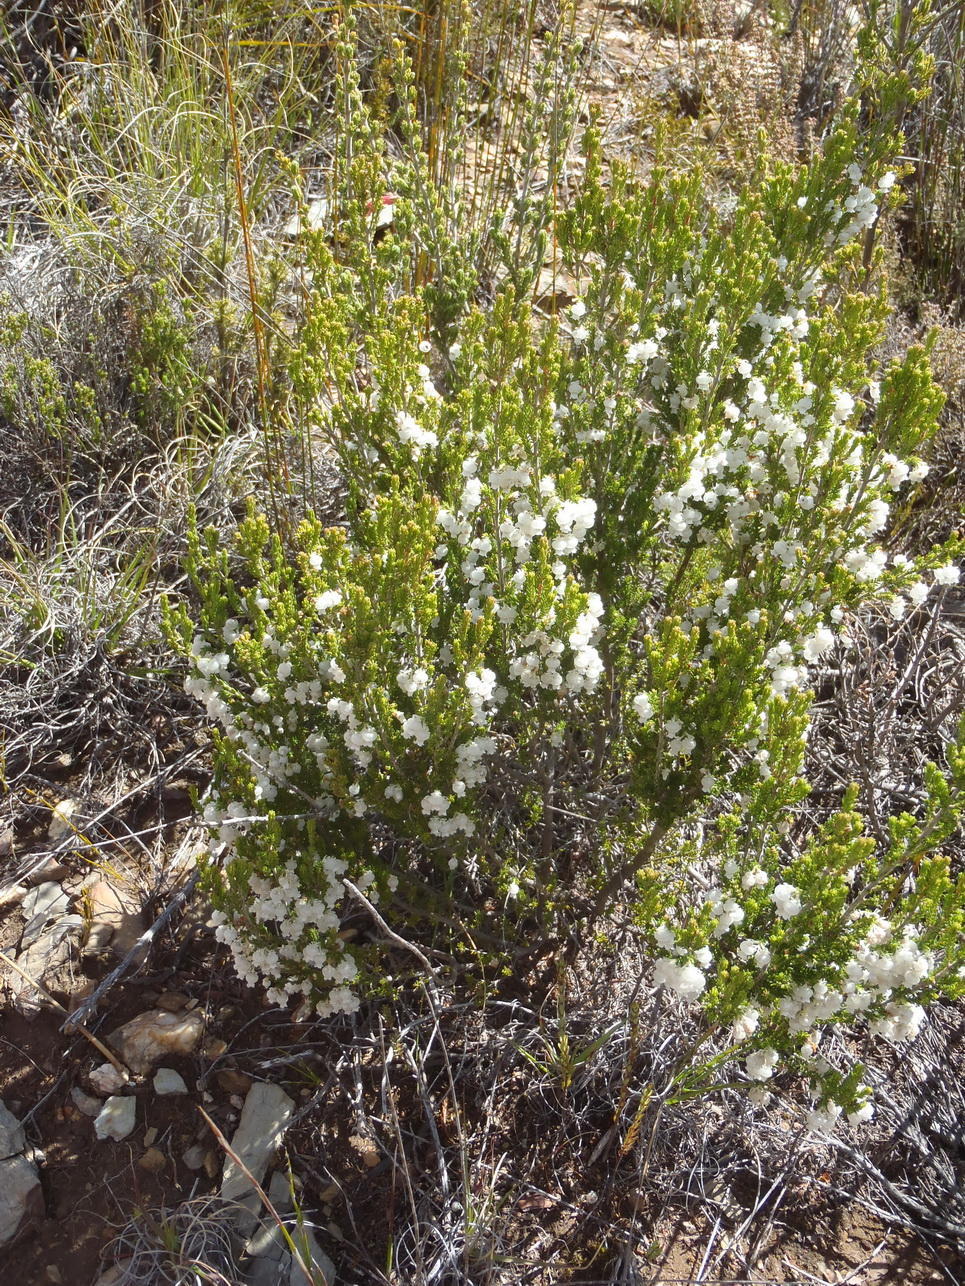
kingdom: Plantae
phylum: Tracheophyta
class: Magnoliopsida
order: Ericales
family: Ericaceae
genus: Erica
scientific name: Erica syngenesia
